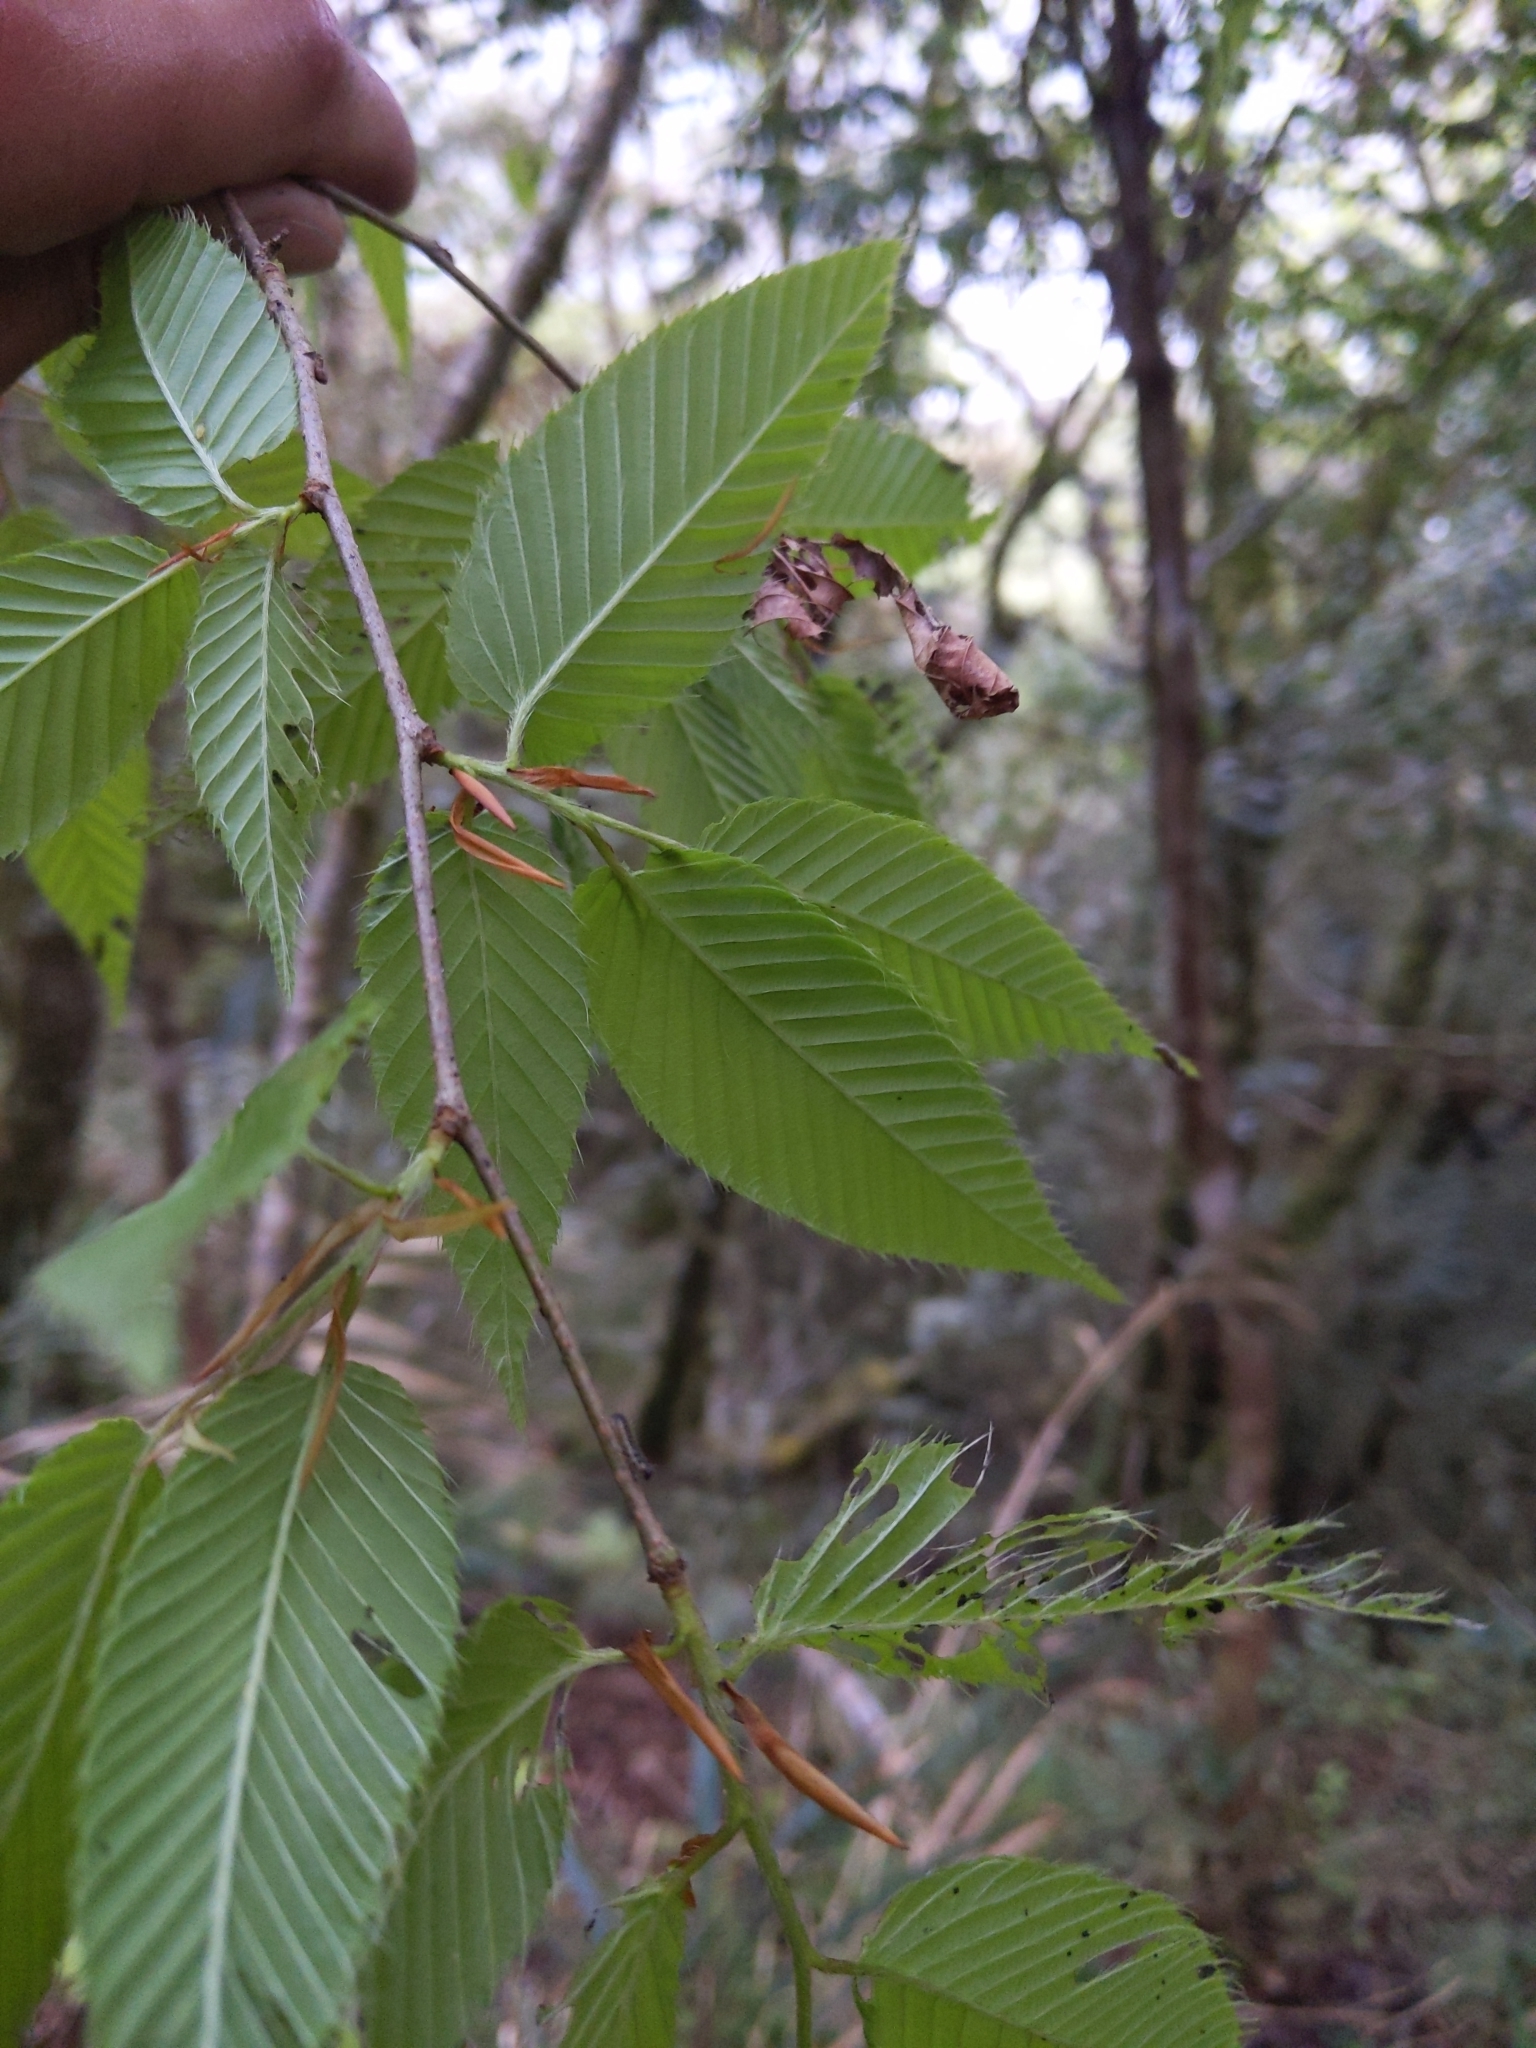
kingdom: Plantae
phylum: Tracheophyta
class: Magnoliopsida
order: Fagales
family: Betulaceae
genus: Carpinus
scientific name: Carpinus rankanensis
